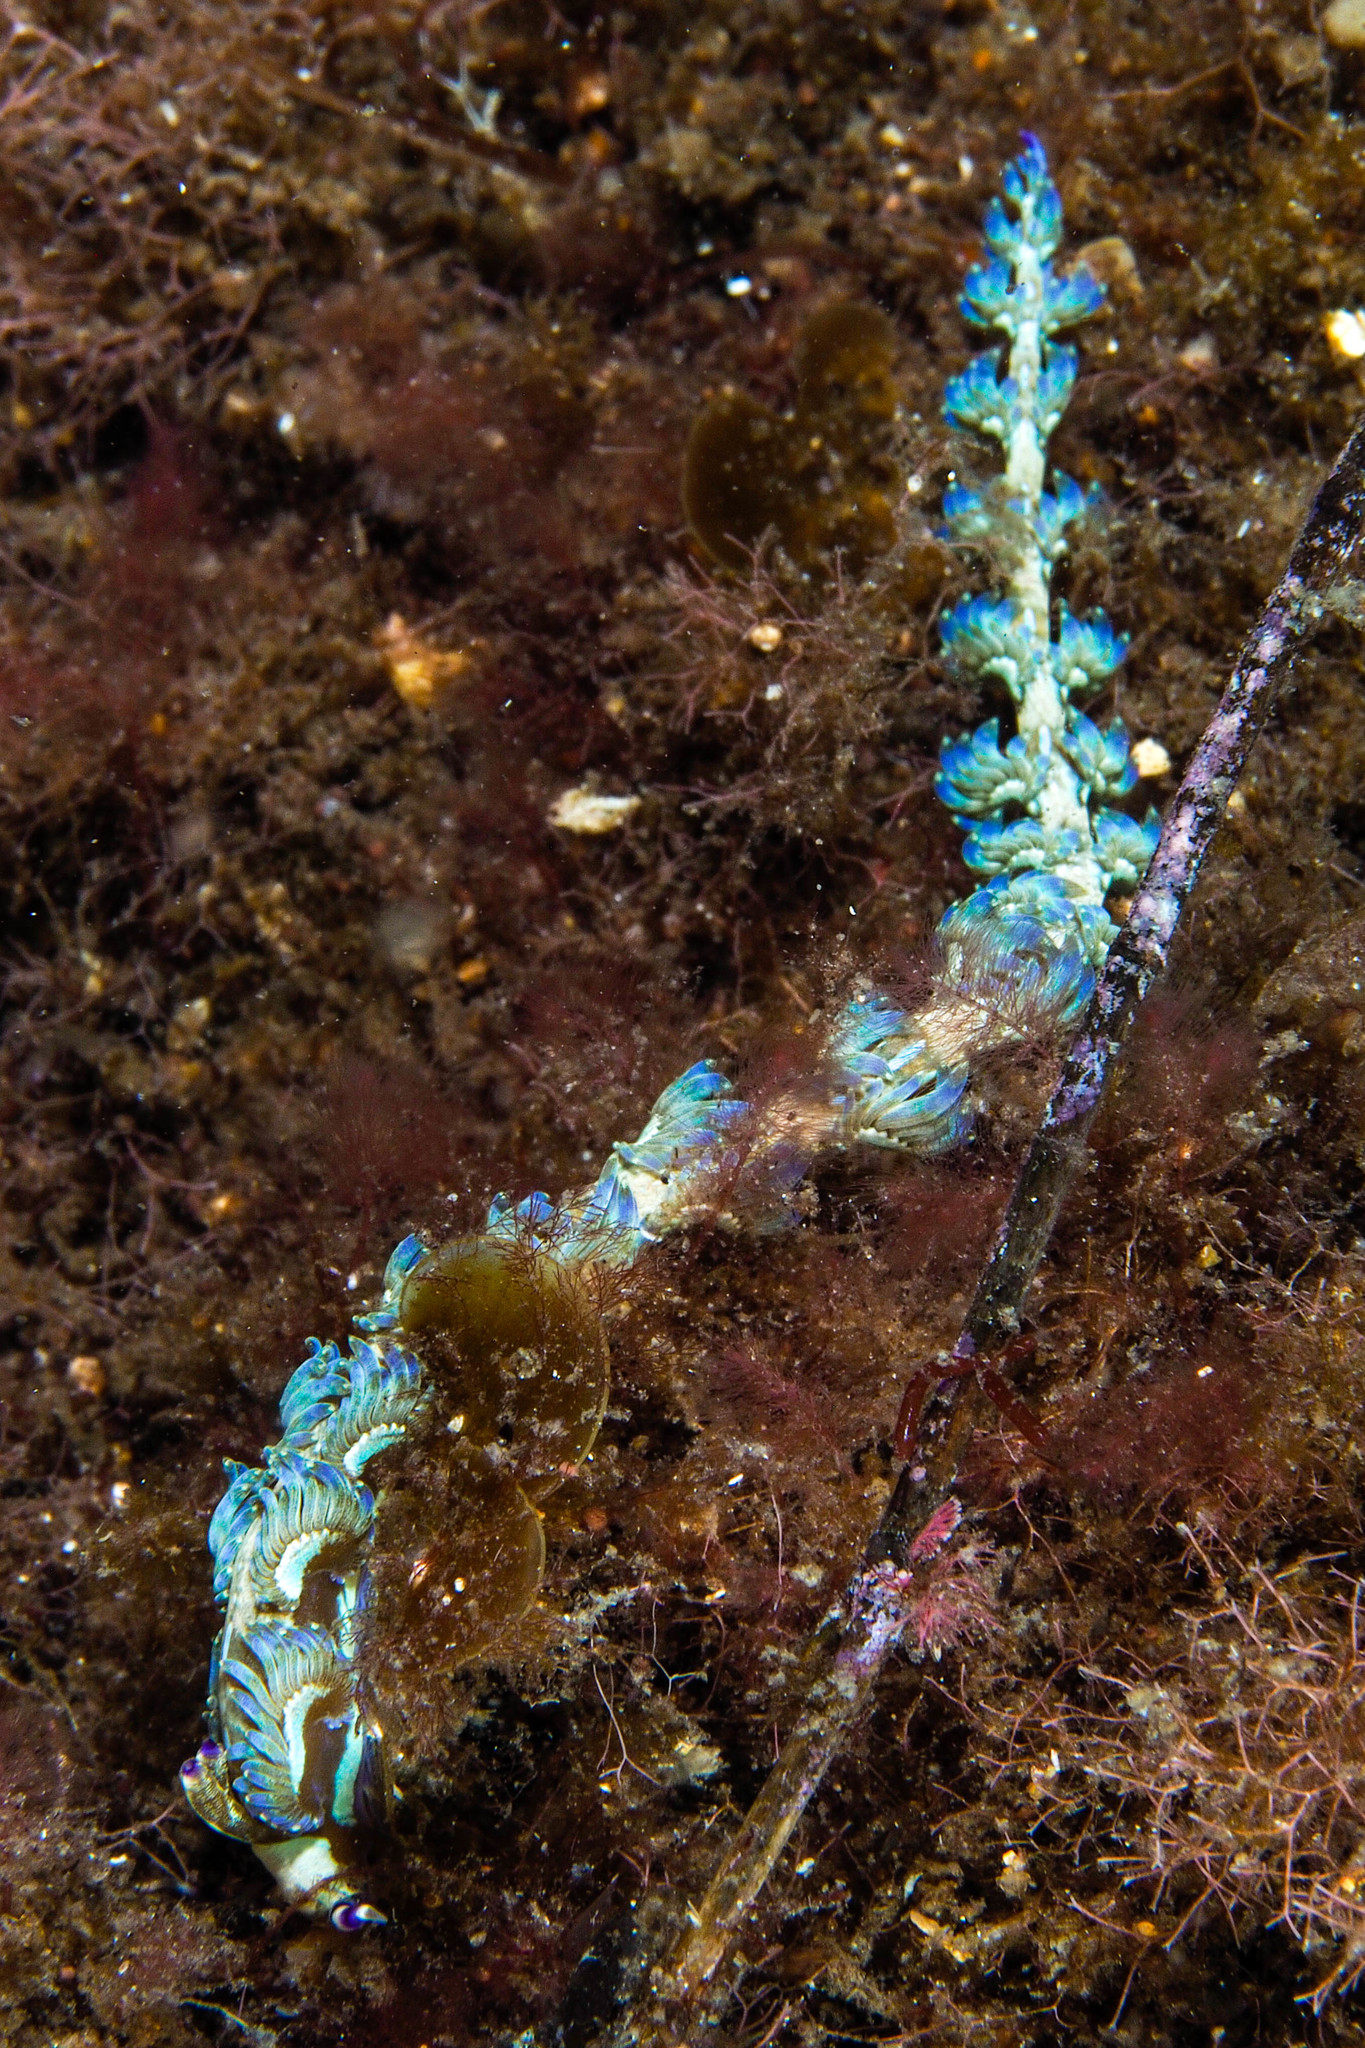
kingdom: Animalia
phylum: Mollusca
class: Gastropoda
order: Nudibranchia
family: Facelinidae
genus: Pteraeolidia
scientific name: Pteraeolidia semperi
